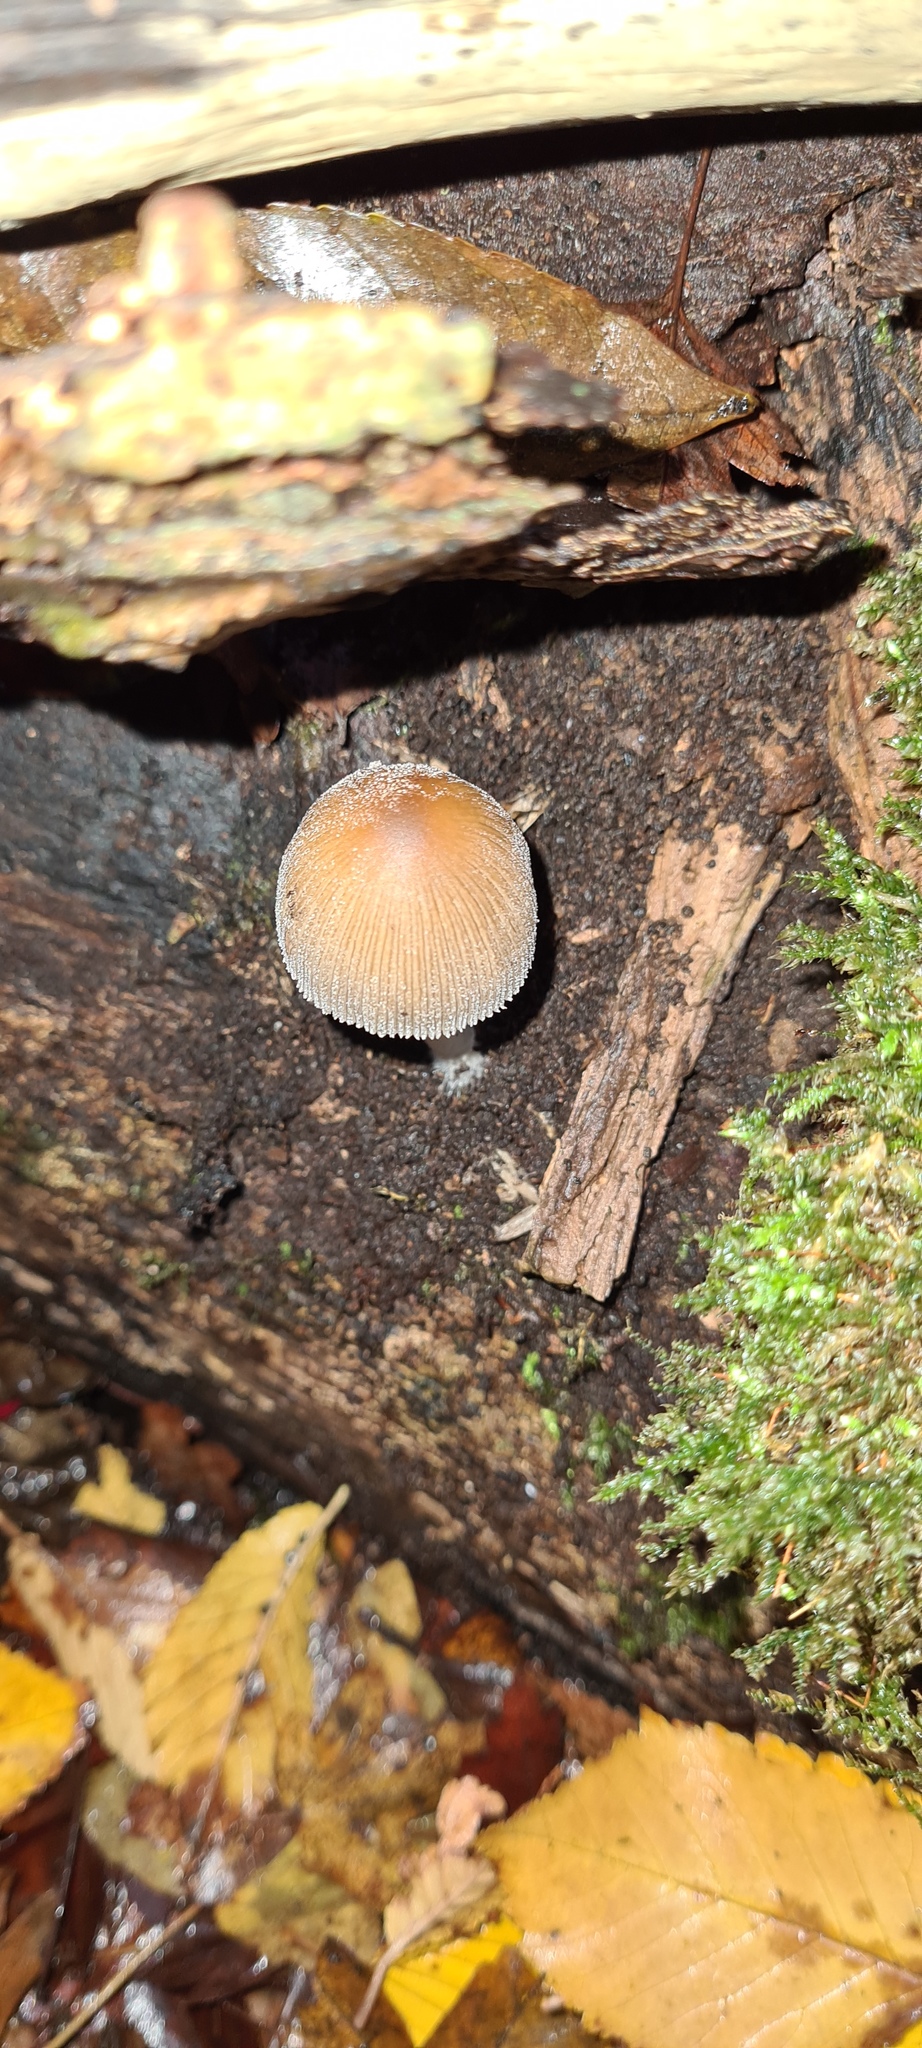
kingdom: Fungi
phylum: Basidiomycota
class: Agaricomycetes
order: Agaricales
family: Psathyrellaceae
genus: Coprinellus
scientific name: Coprinellus micaceus
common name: Glistening ink-cap
